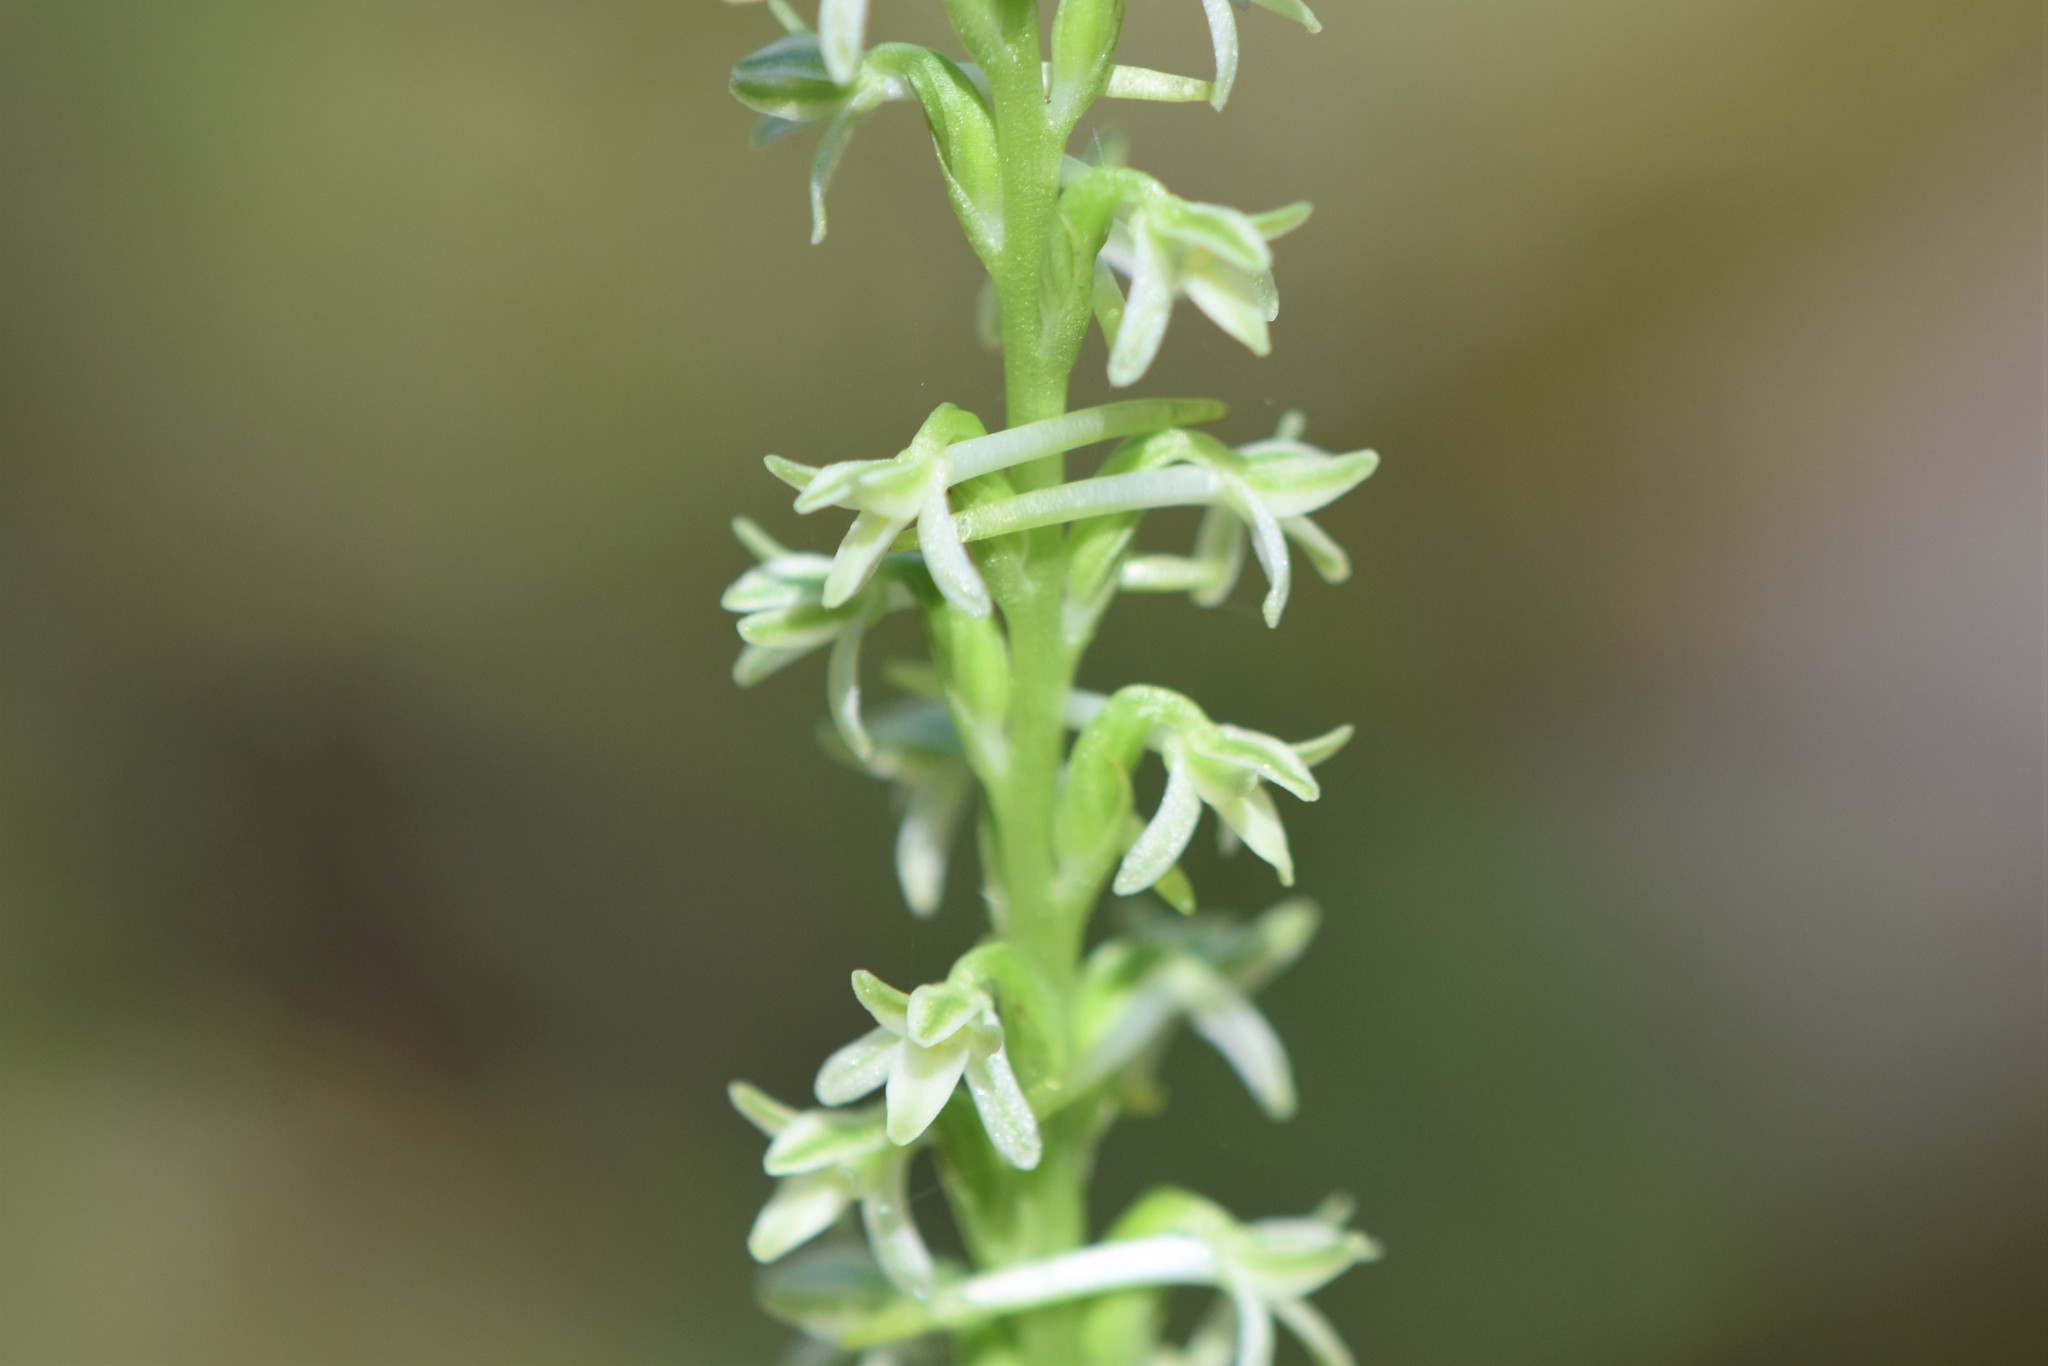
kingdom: Plantae
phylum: Tracheophyta
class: Liliopsida
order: Asparagales
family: Orchidaceae
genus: Platanthera
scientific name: Platanthera transversa
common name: Royal rein orchid
